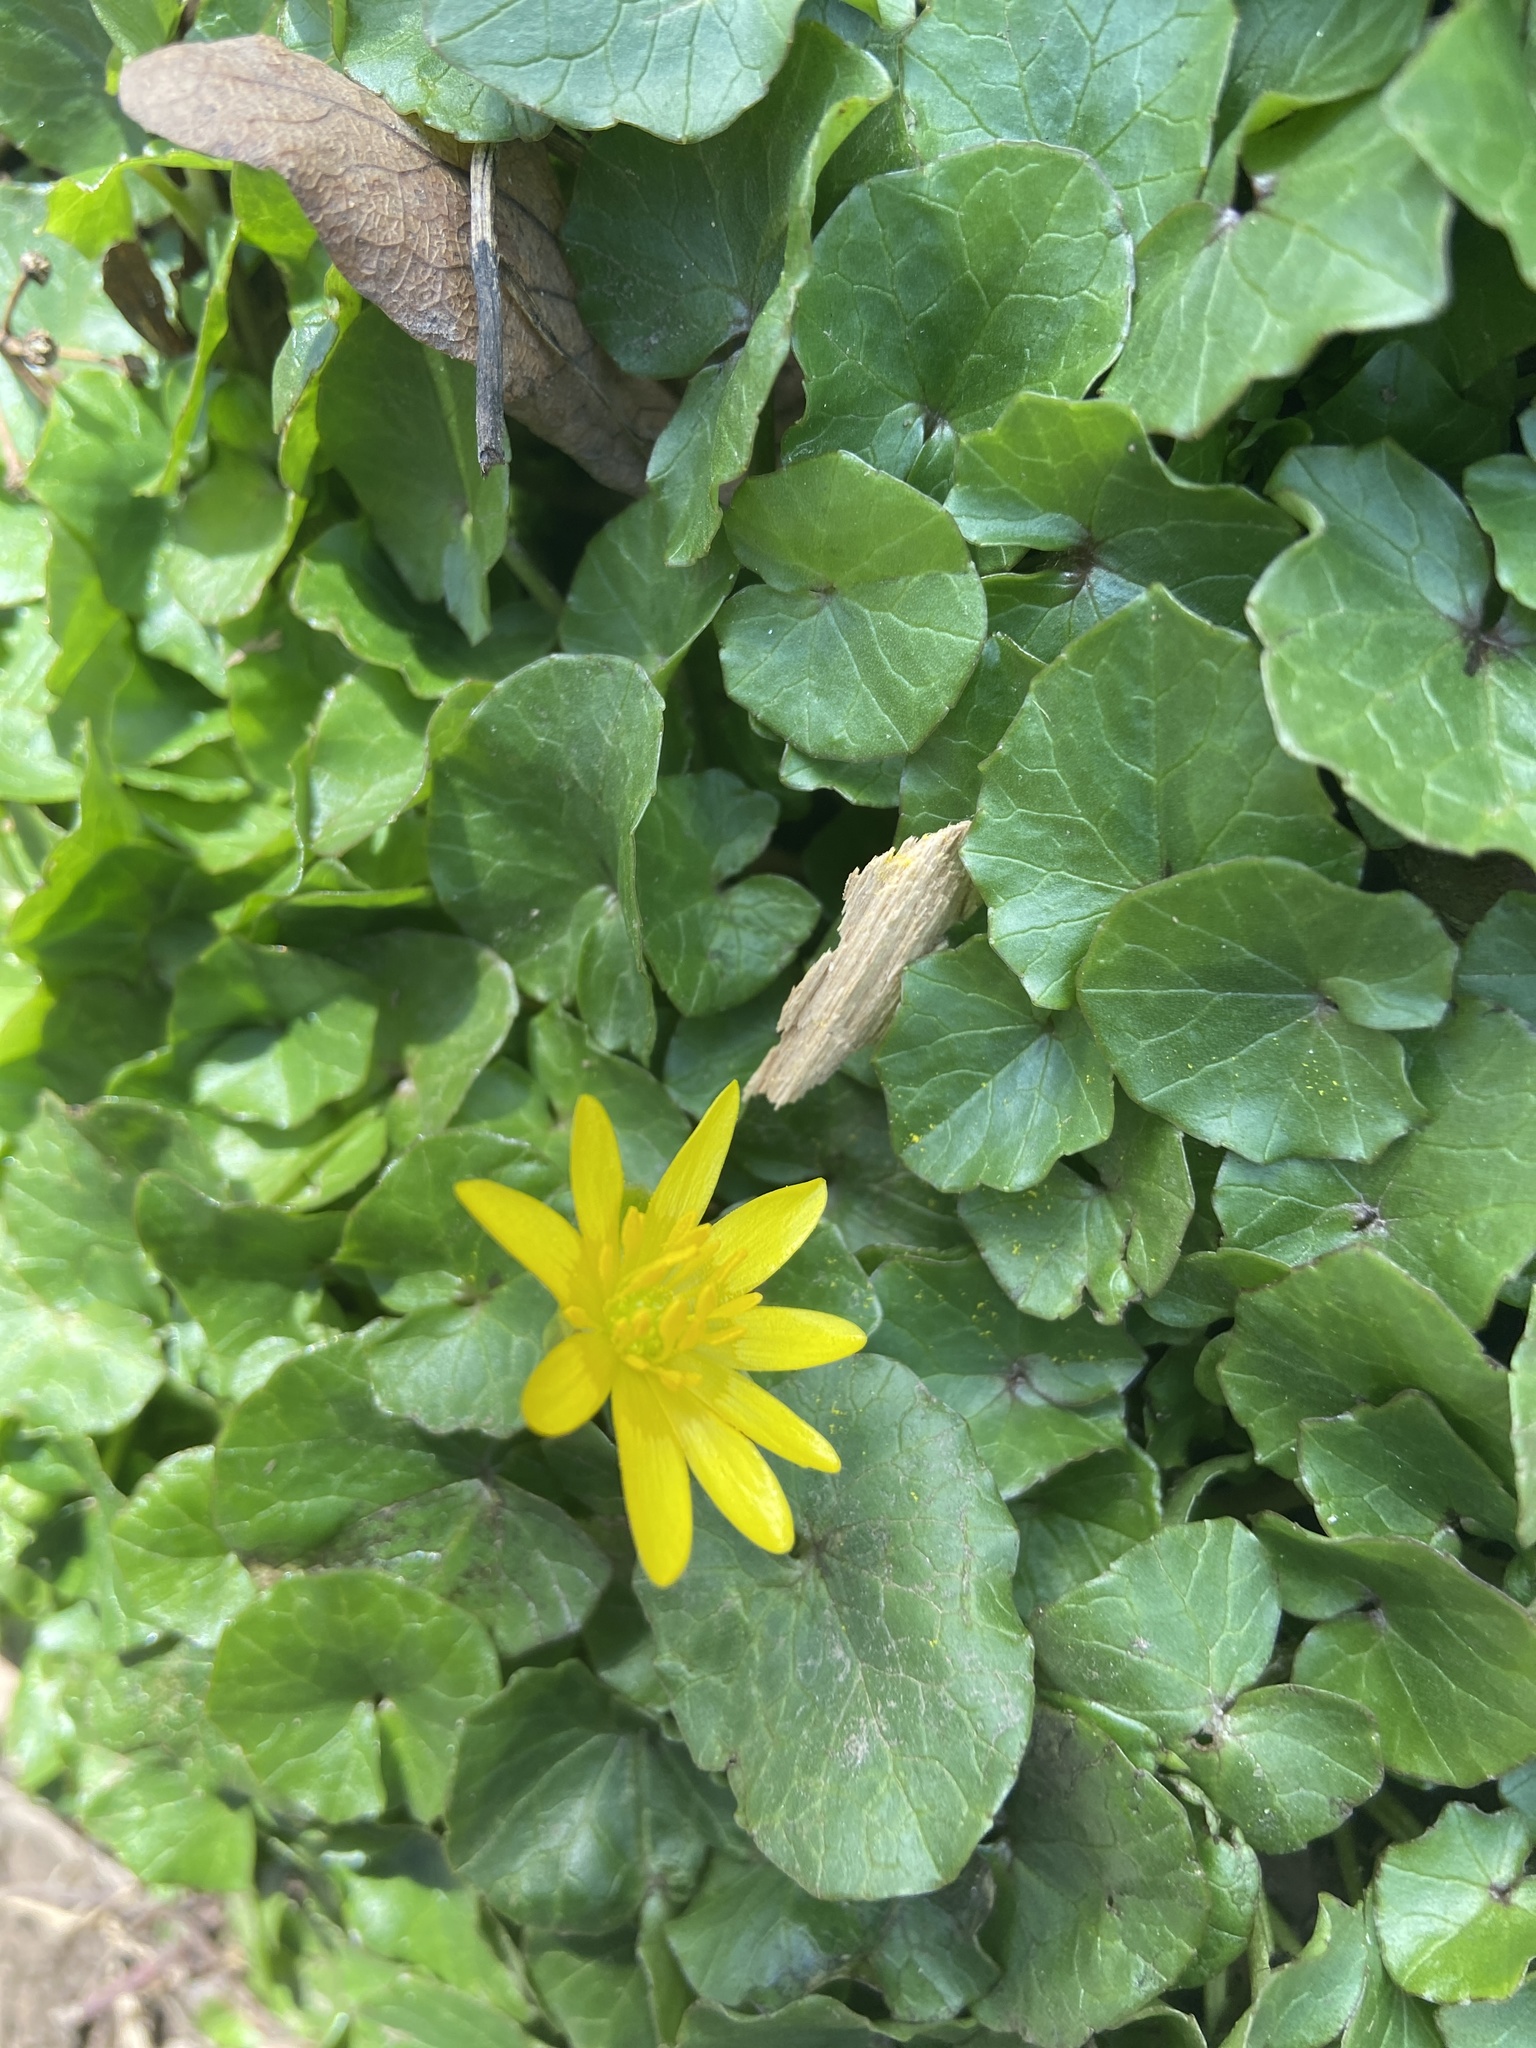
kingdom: Plantae
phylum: Tracheophyta
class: Magnoliopsida
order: Ranunculales
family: Ranunculaceae
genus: Ficaria
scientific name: Ficaria verna
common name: Lesser celandine
